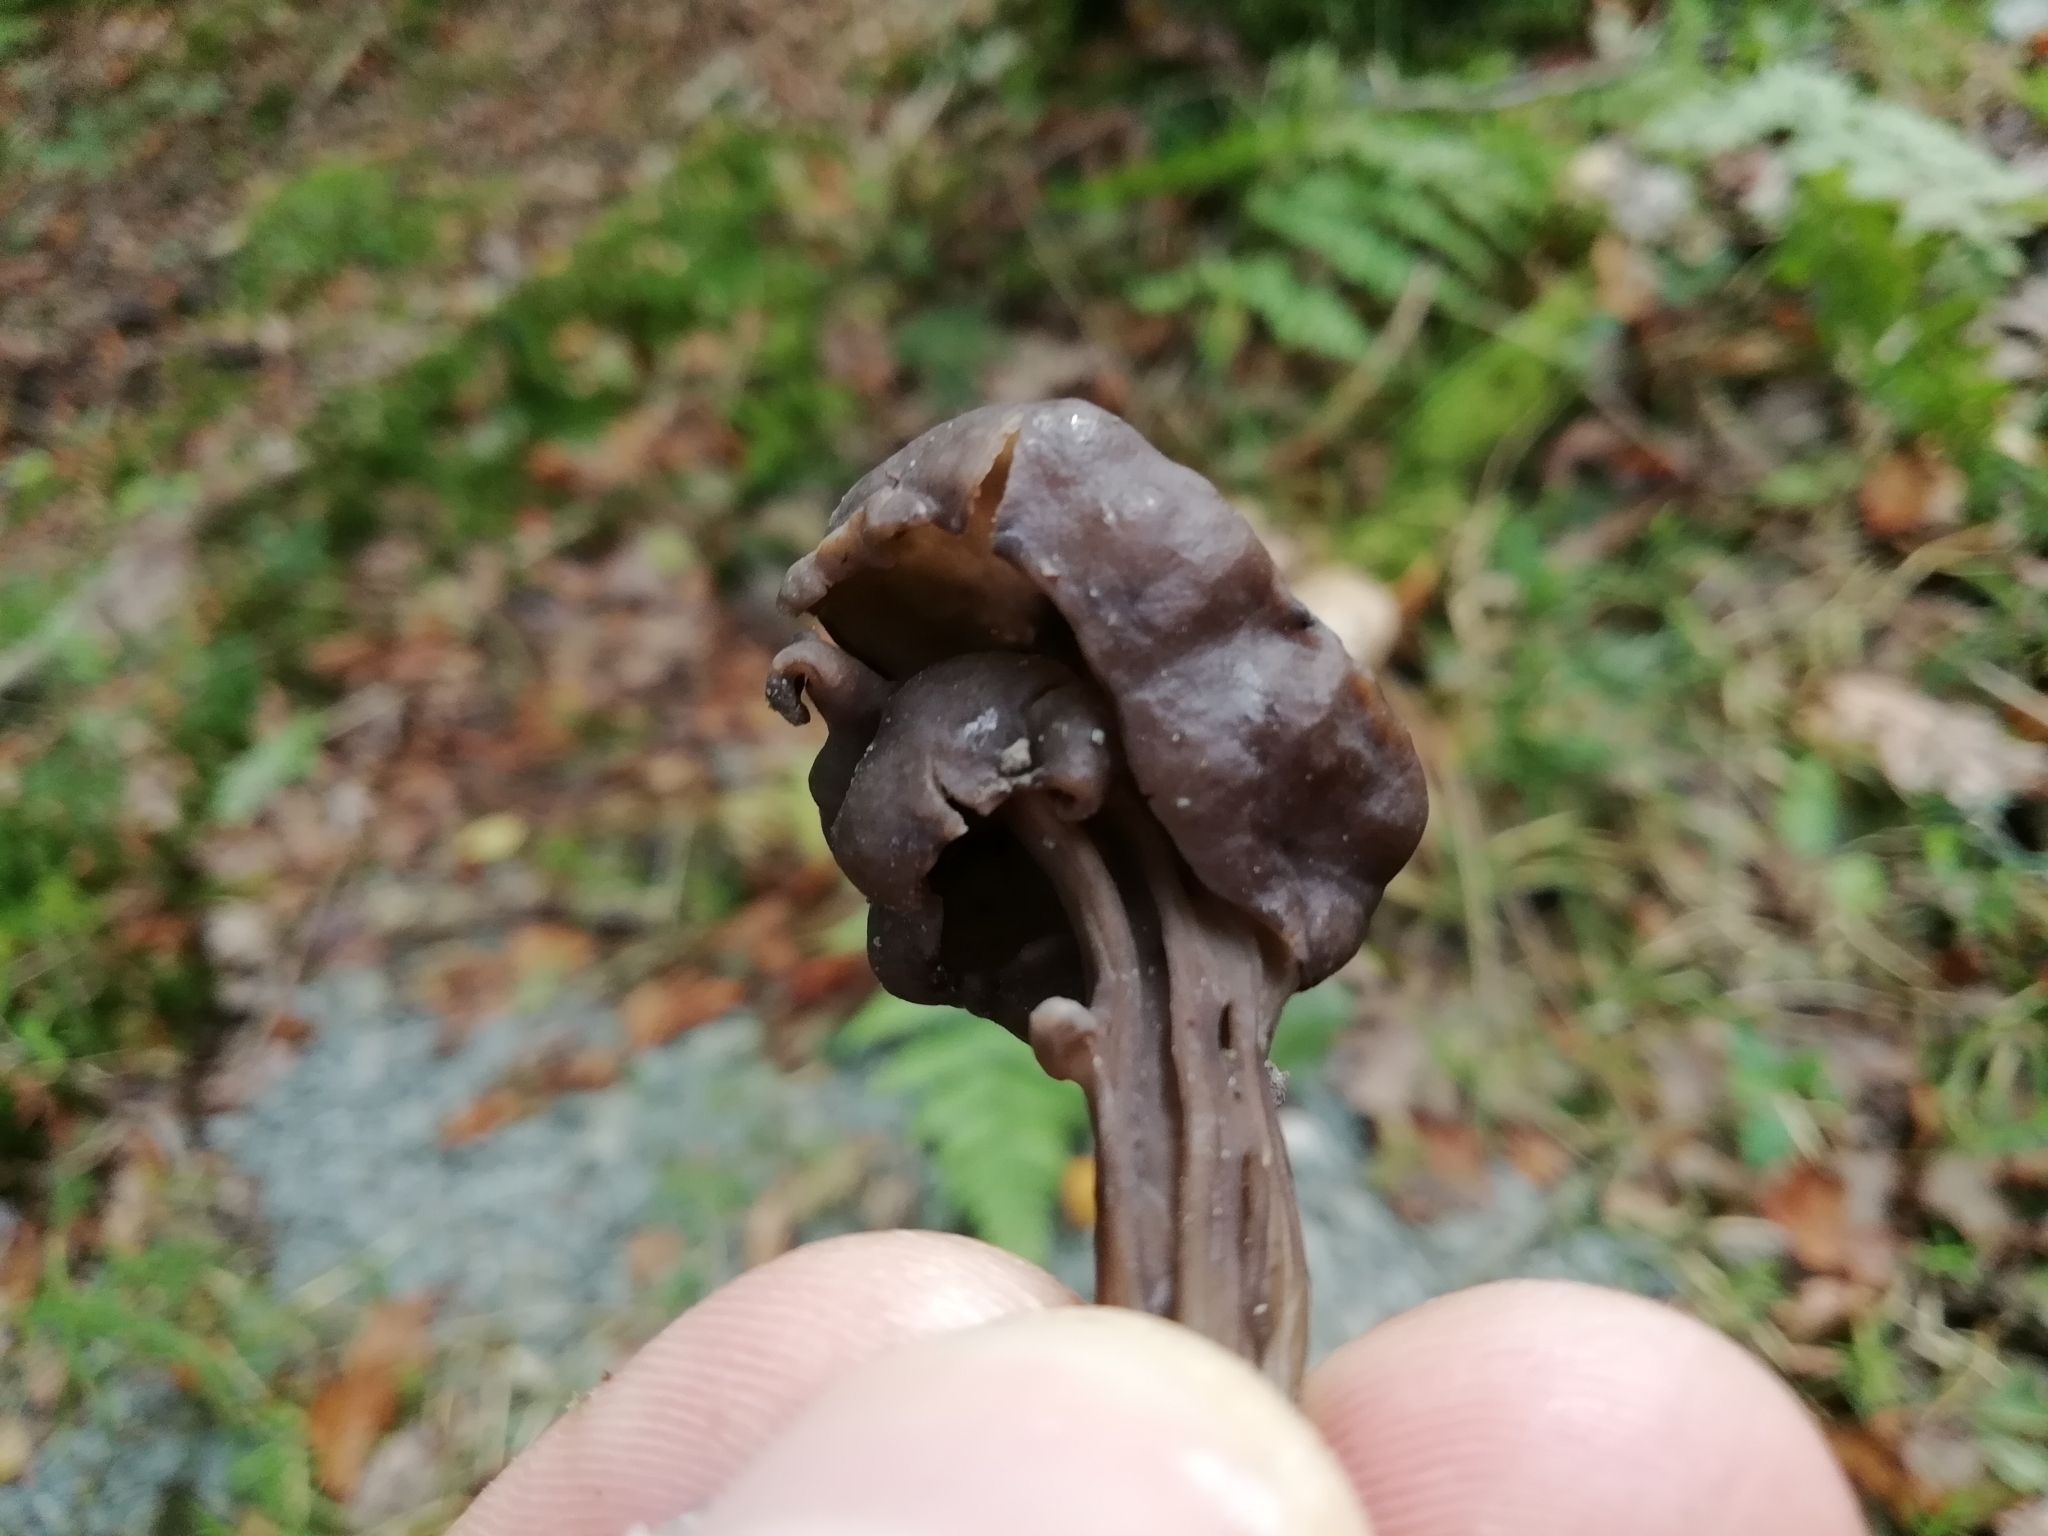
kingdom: Fungi
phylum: Ascomycota
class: Pezizomycetes
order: Pezizales
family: Helvellaceae
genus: Helvella
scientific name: Helvella lacunosa
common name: Elfin saddle
